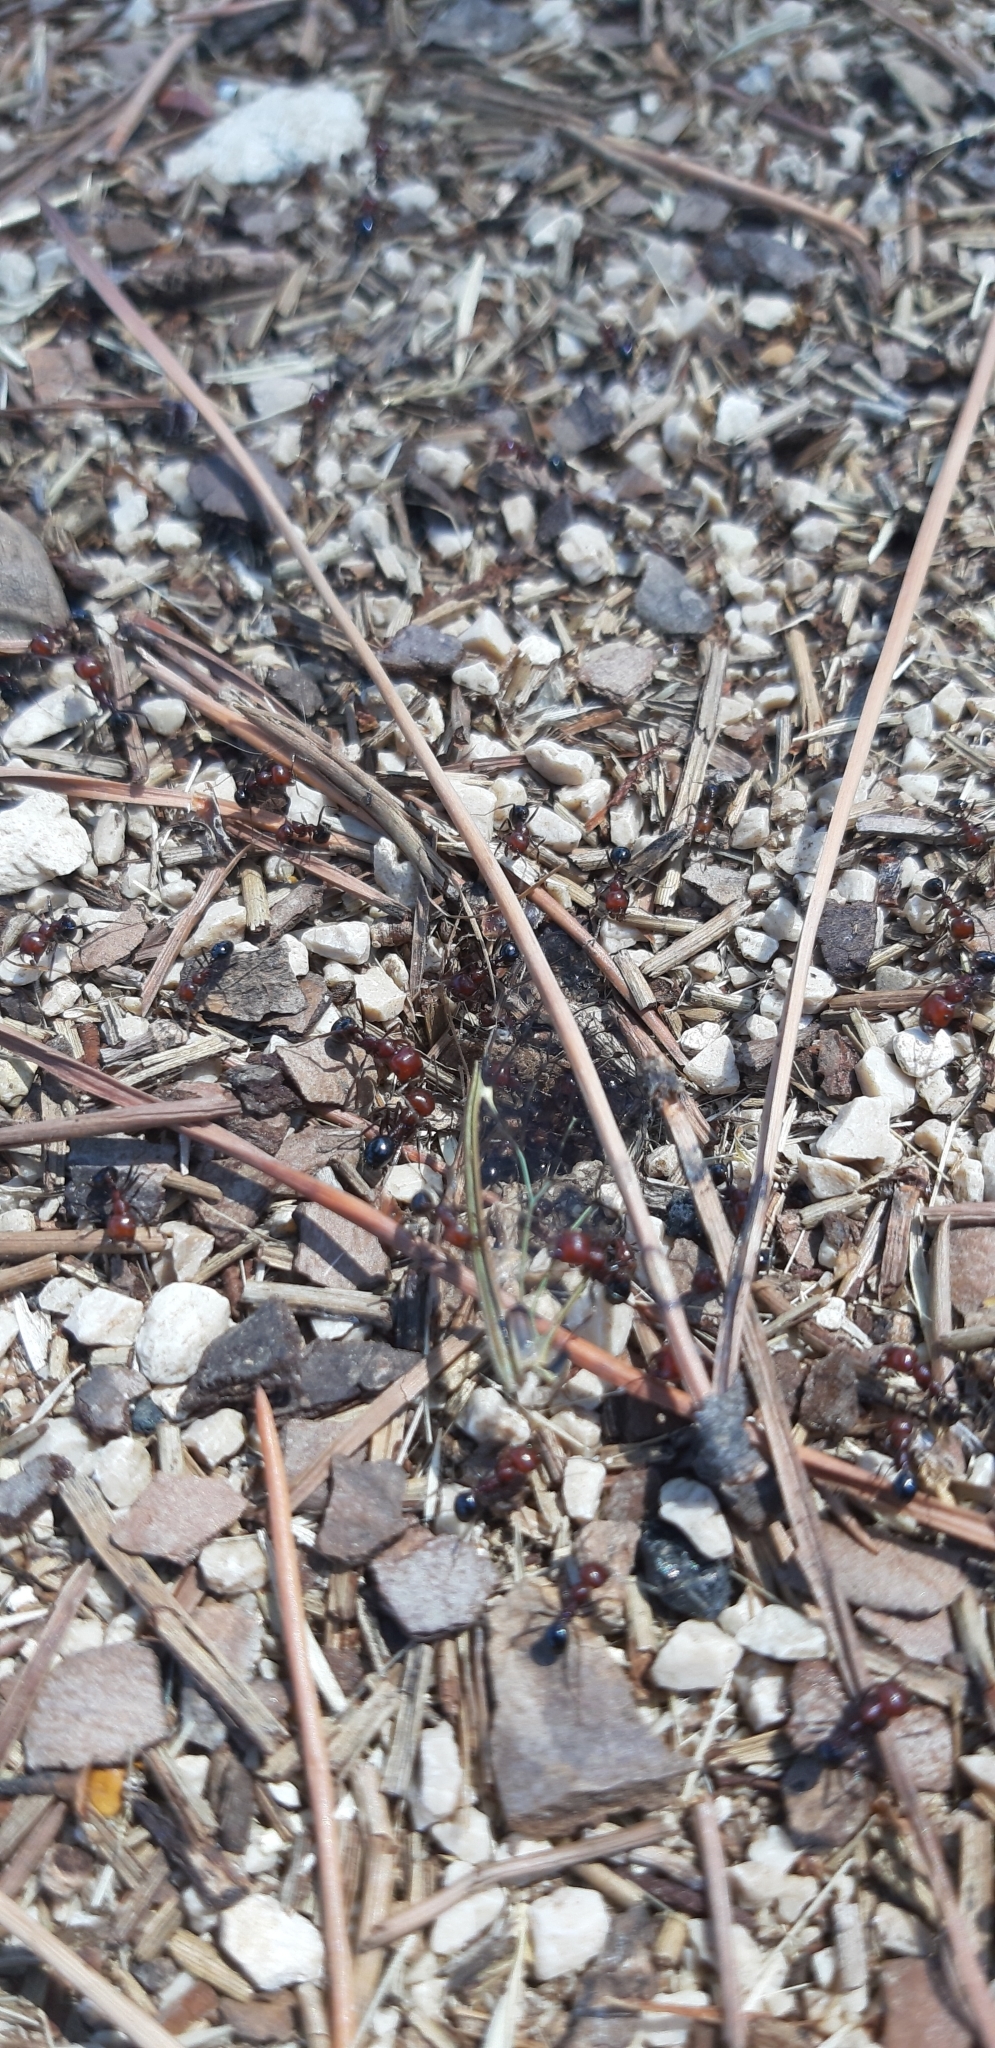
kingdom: Animalia
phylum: Arthropoda
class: Insecta
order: Hymenoptera
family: Formicidae
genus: Messor
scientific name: Messor minor
